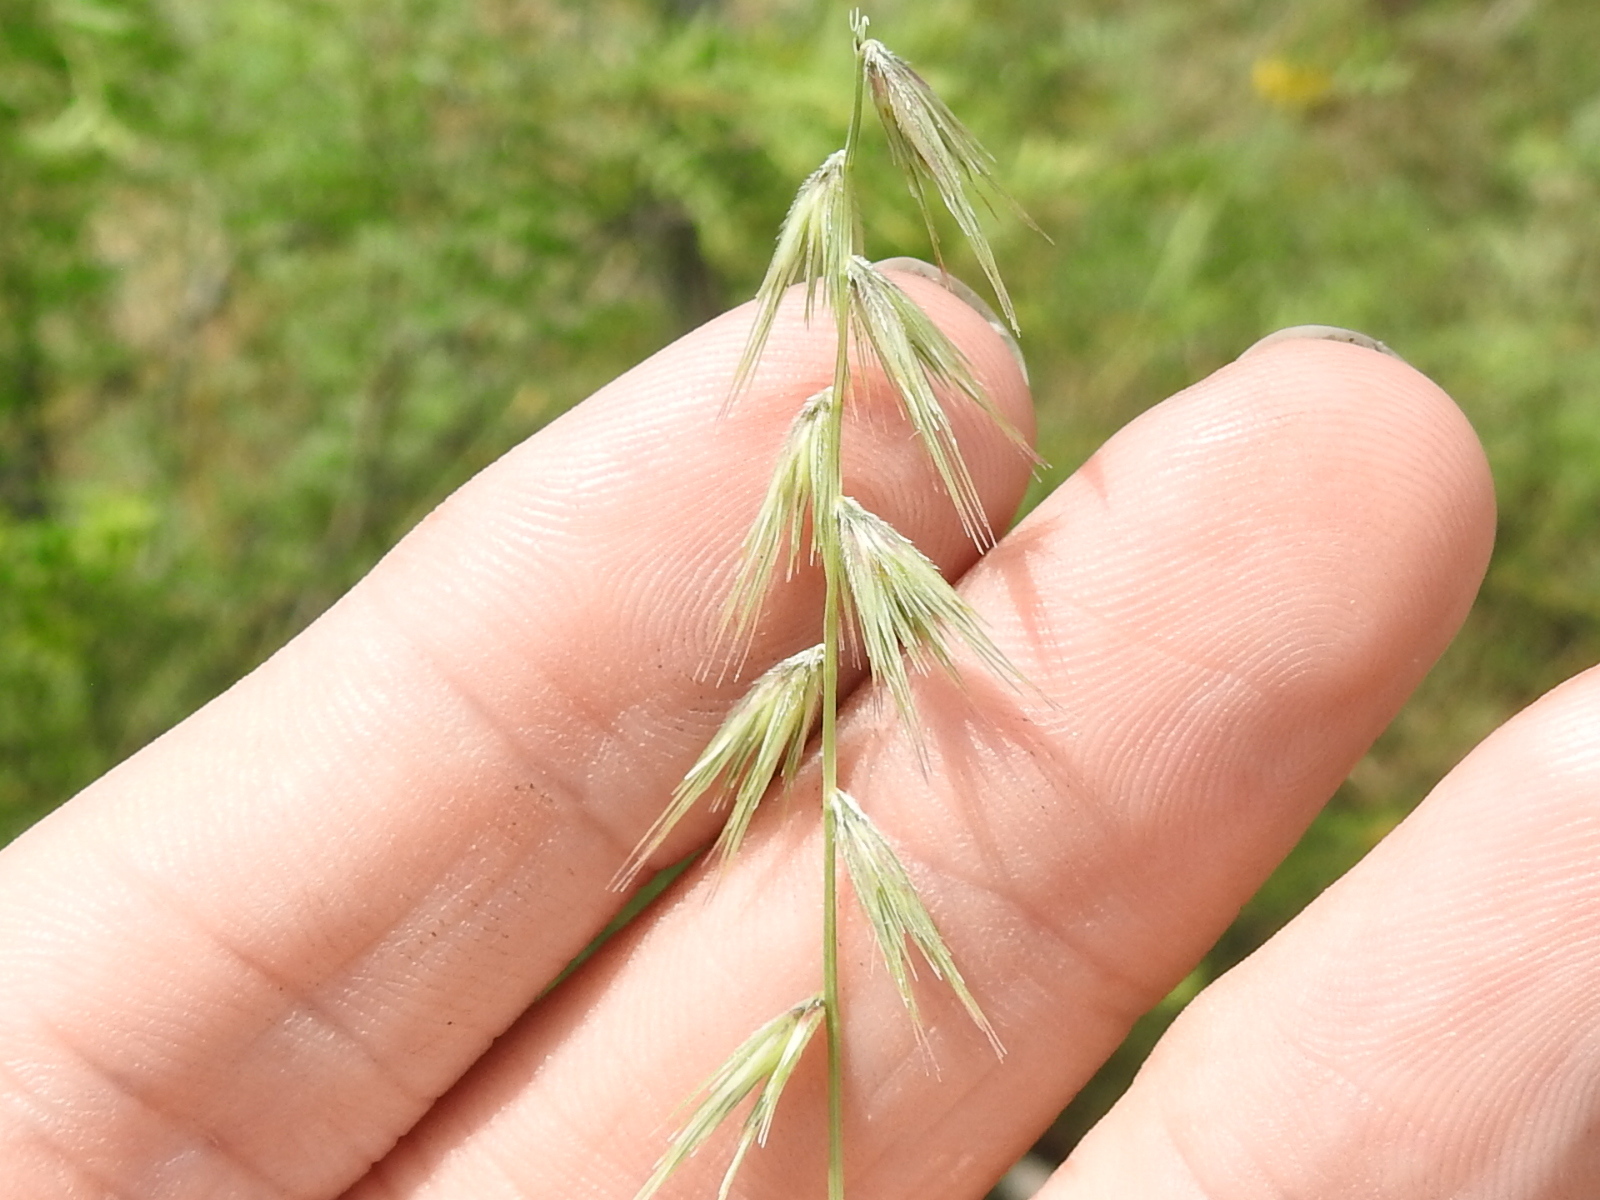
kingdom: Plantae
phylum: Tracheophyta
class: Liliopsida
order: Poales
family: Poaceae
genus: Bouteloua
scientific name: Bouteloua rigidiseta
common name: Texas grama
